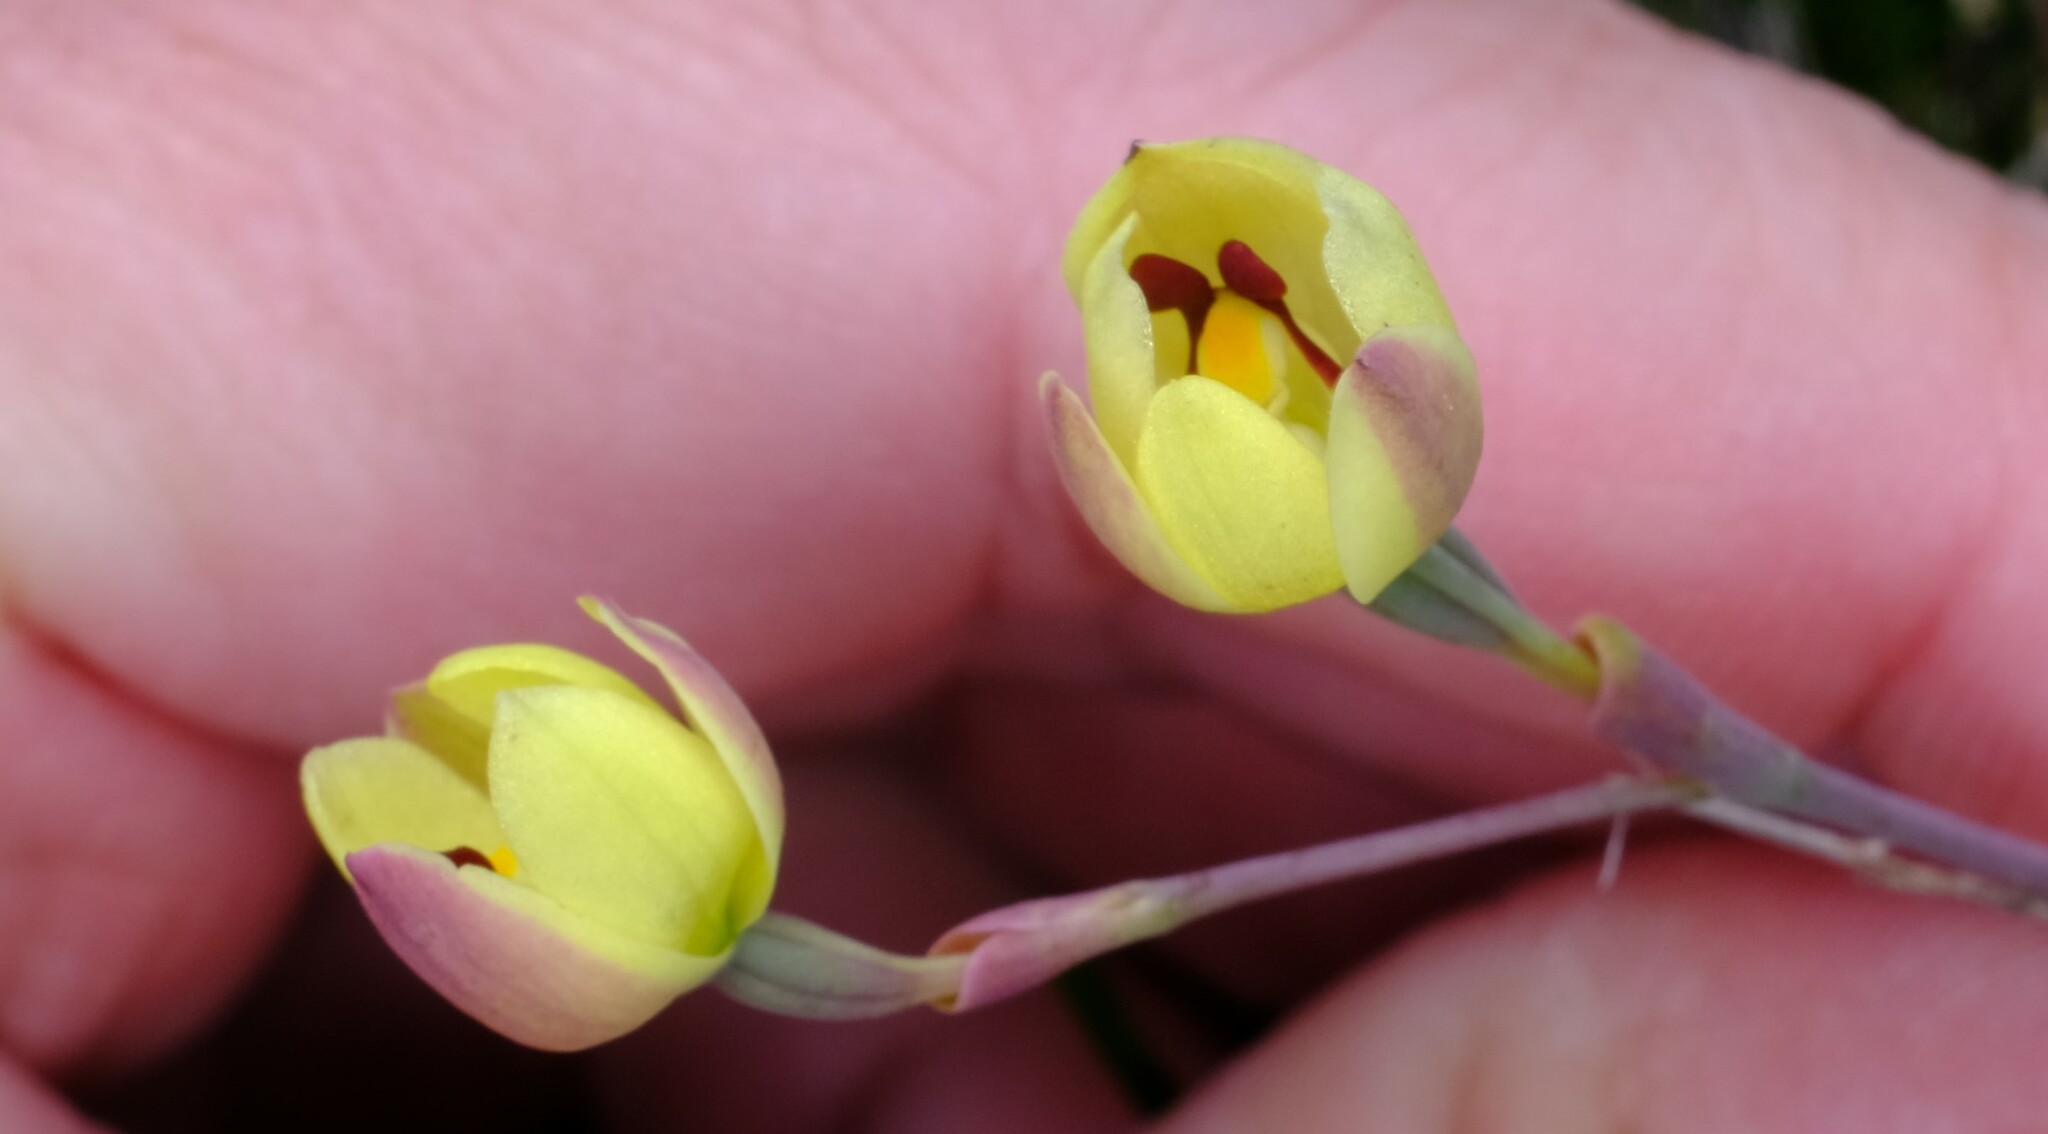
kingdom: Plantae
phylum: Tracheophyta
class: Liliopsida
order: Asparagales
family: Orchidaceae
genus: Thelymitra
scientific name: Thelymitra antennifera
